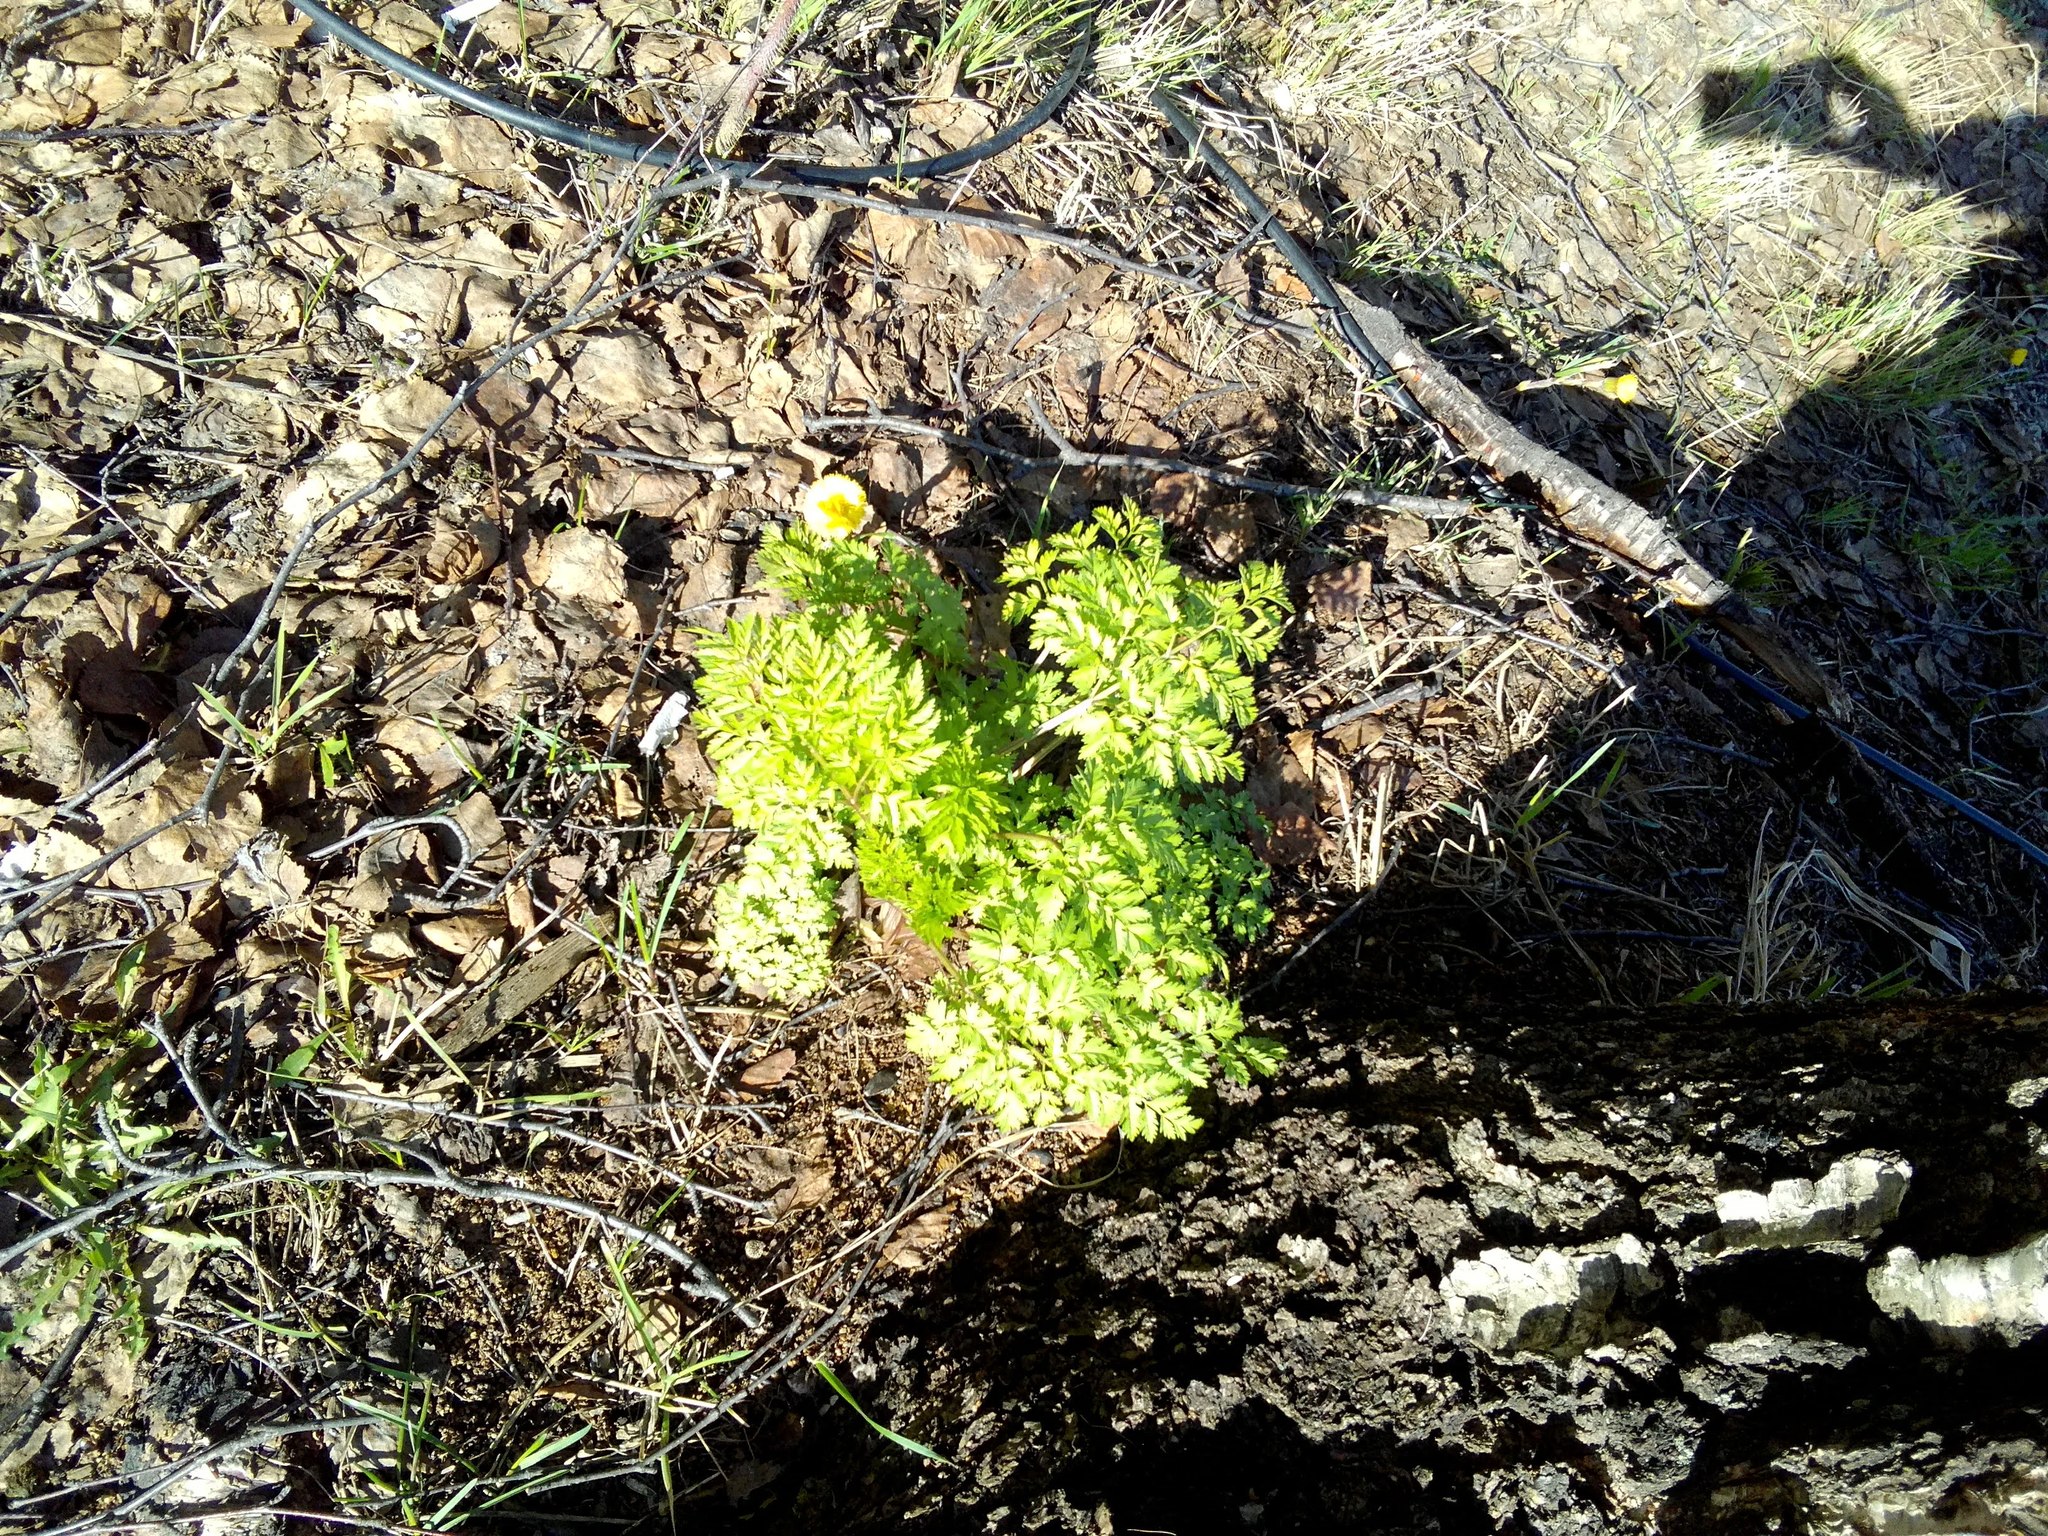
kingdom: Plantae
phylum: Tracheophyta
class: Magnoliopsida
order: Apiales
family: Apiaceae
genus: Anthriscus
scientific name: Anthriscus sylvestris
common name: Cow parsley
